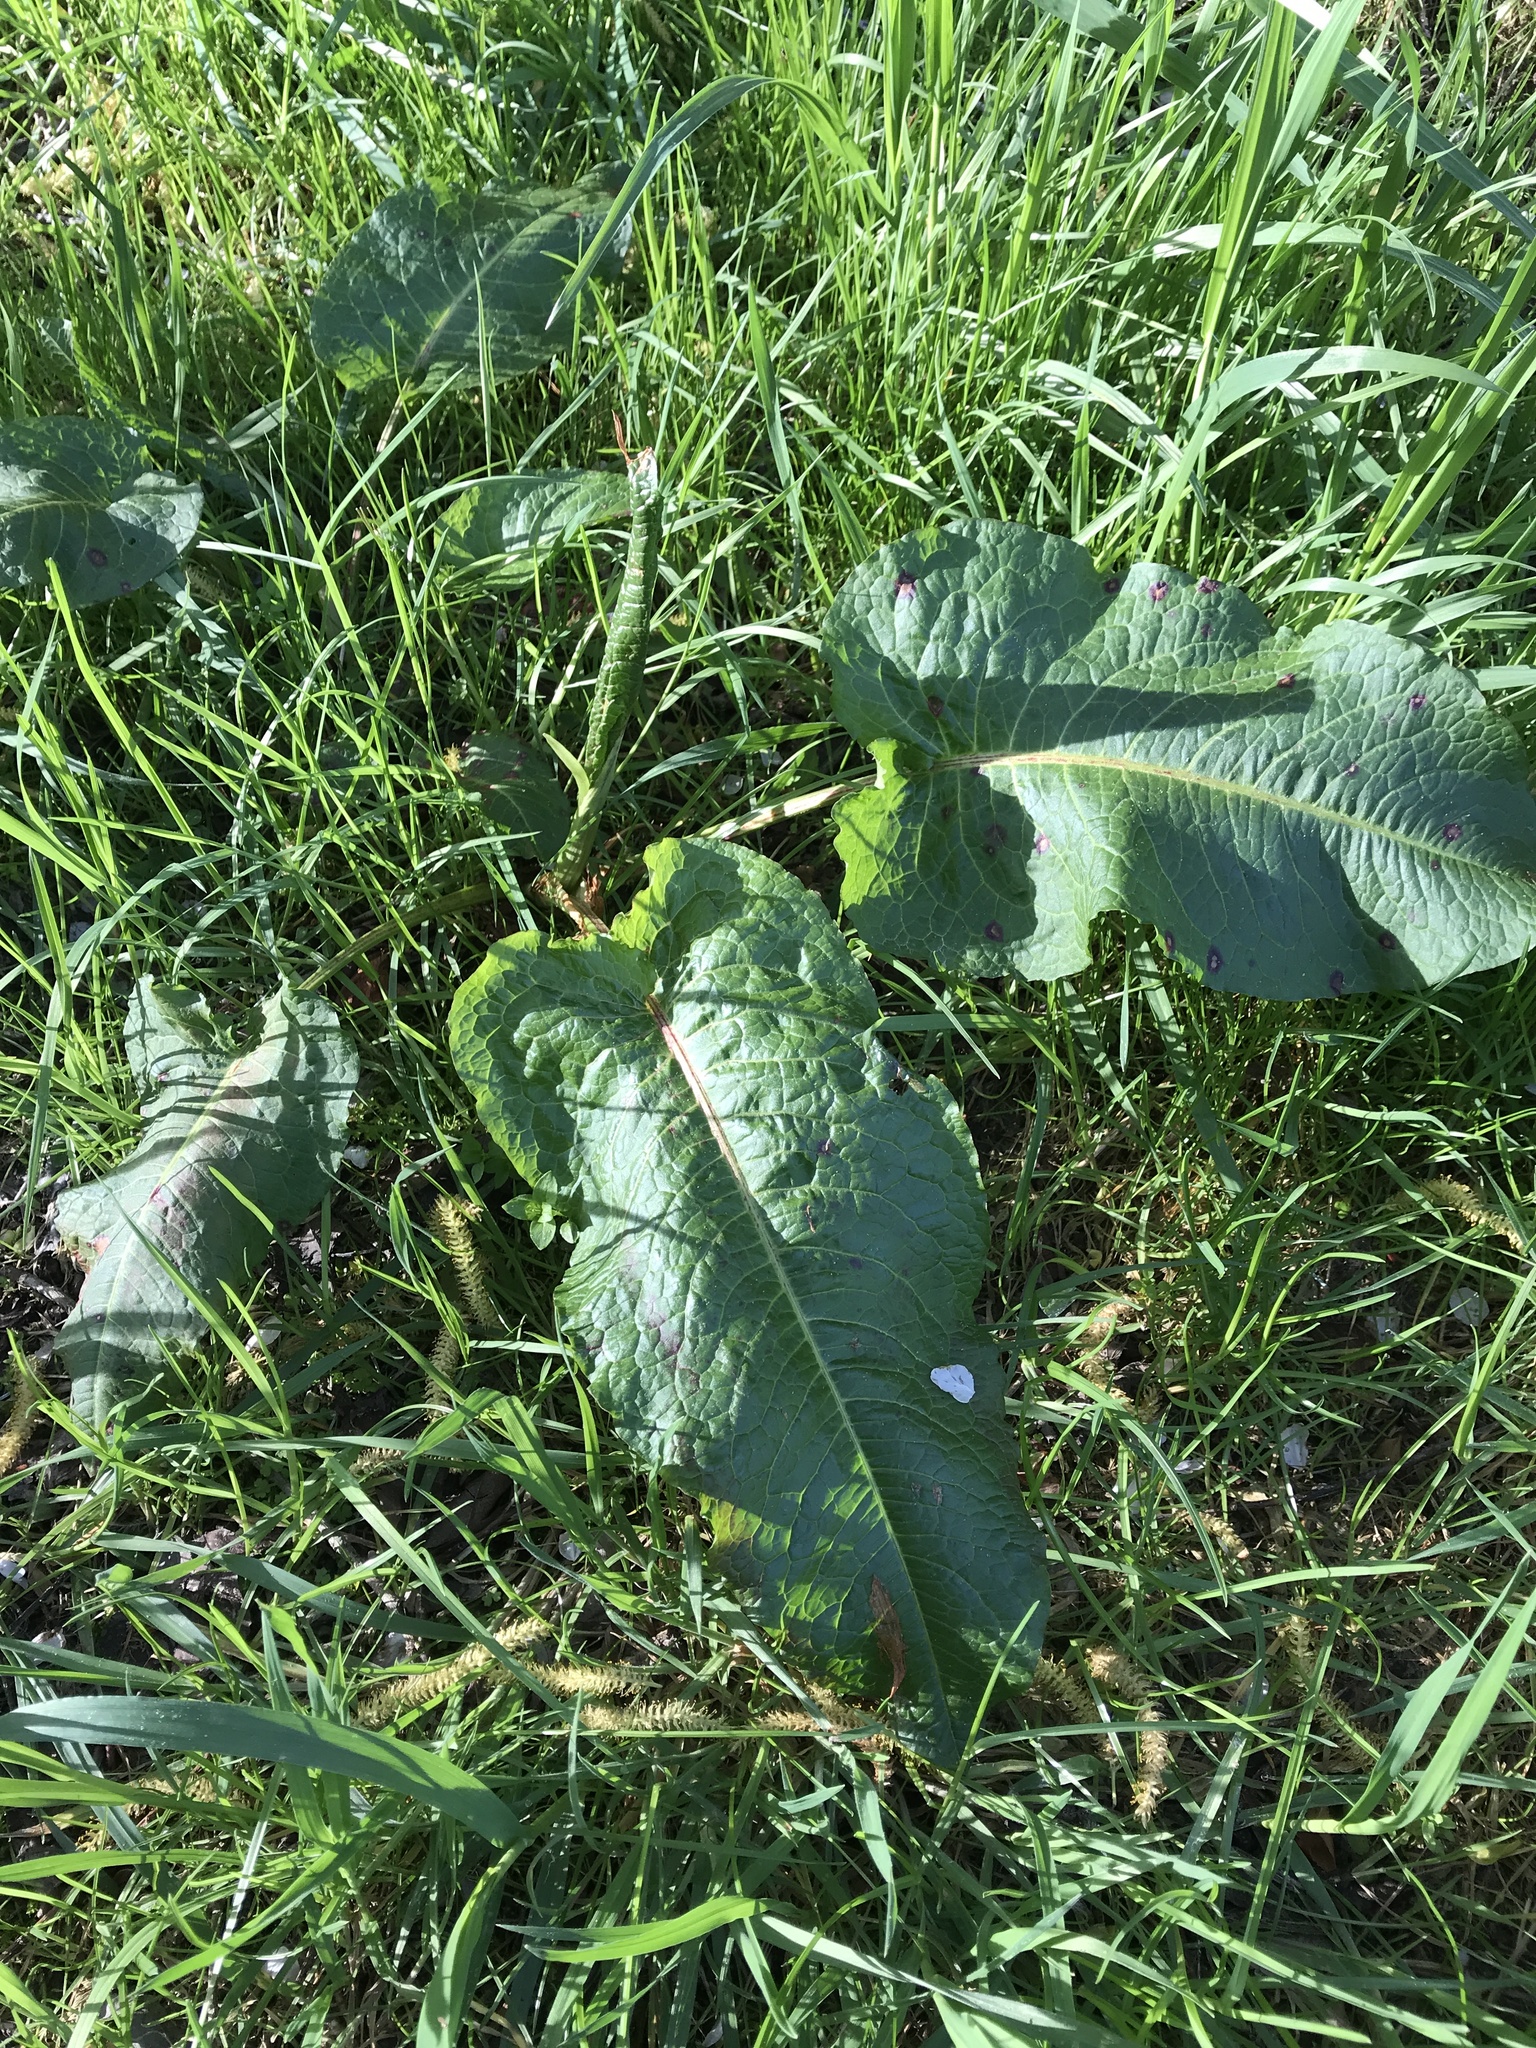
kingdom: Plantae
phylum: Tracheophyta
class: Magnoliopsida
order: Caryophyllales
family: Polygonaceae
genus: Rumex
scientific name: Rumex obtusifolius
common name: Bitter dock
